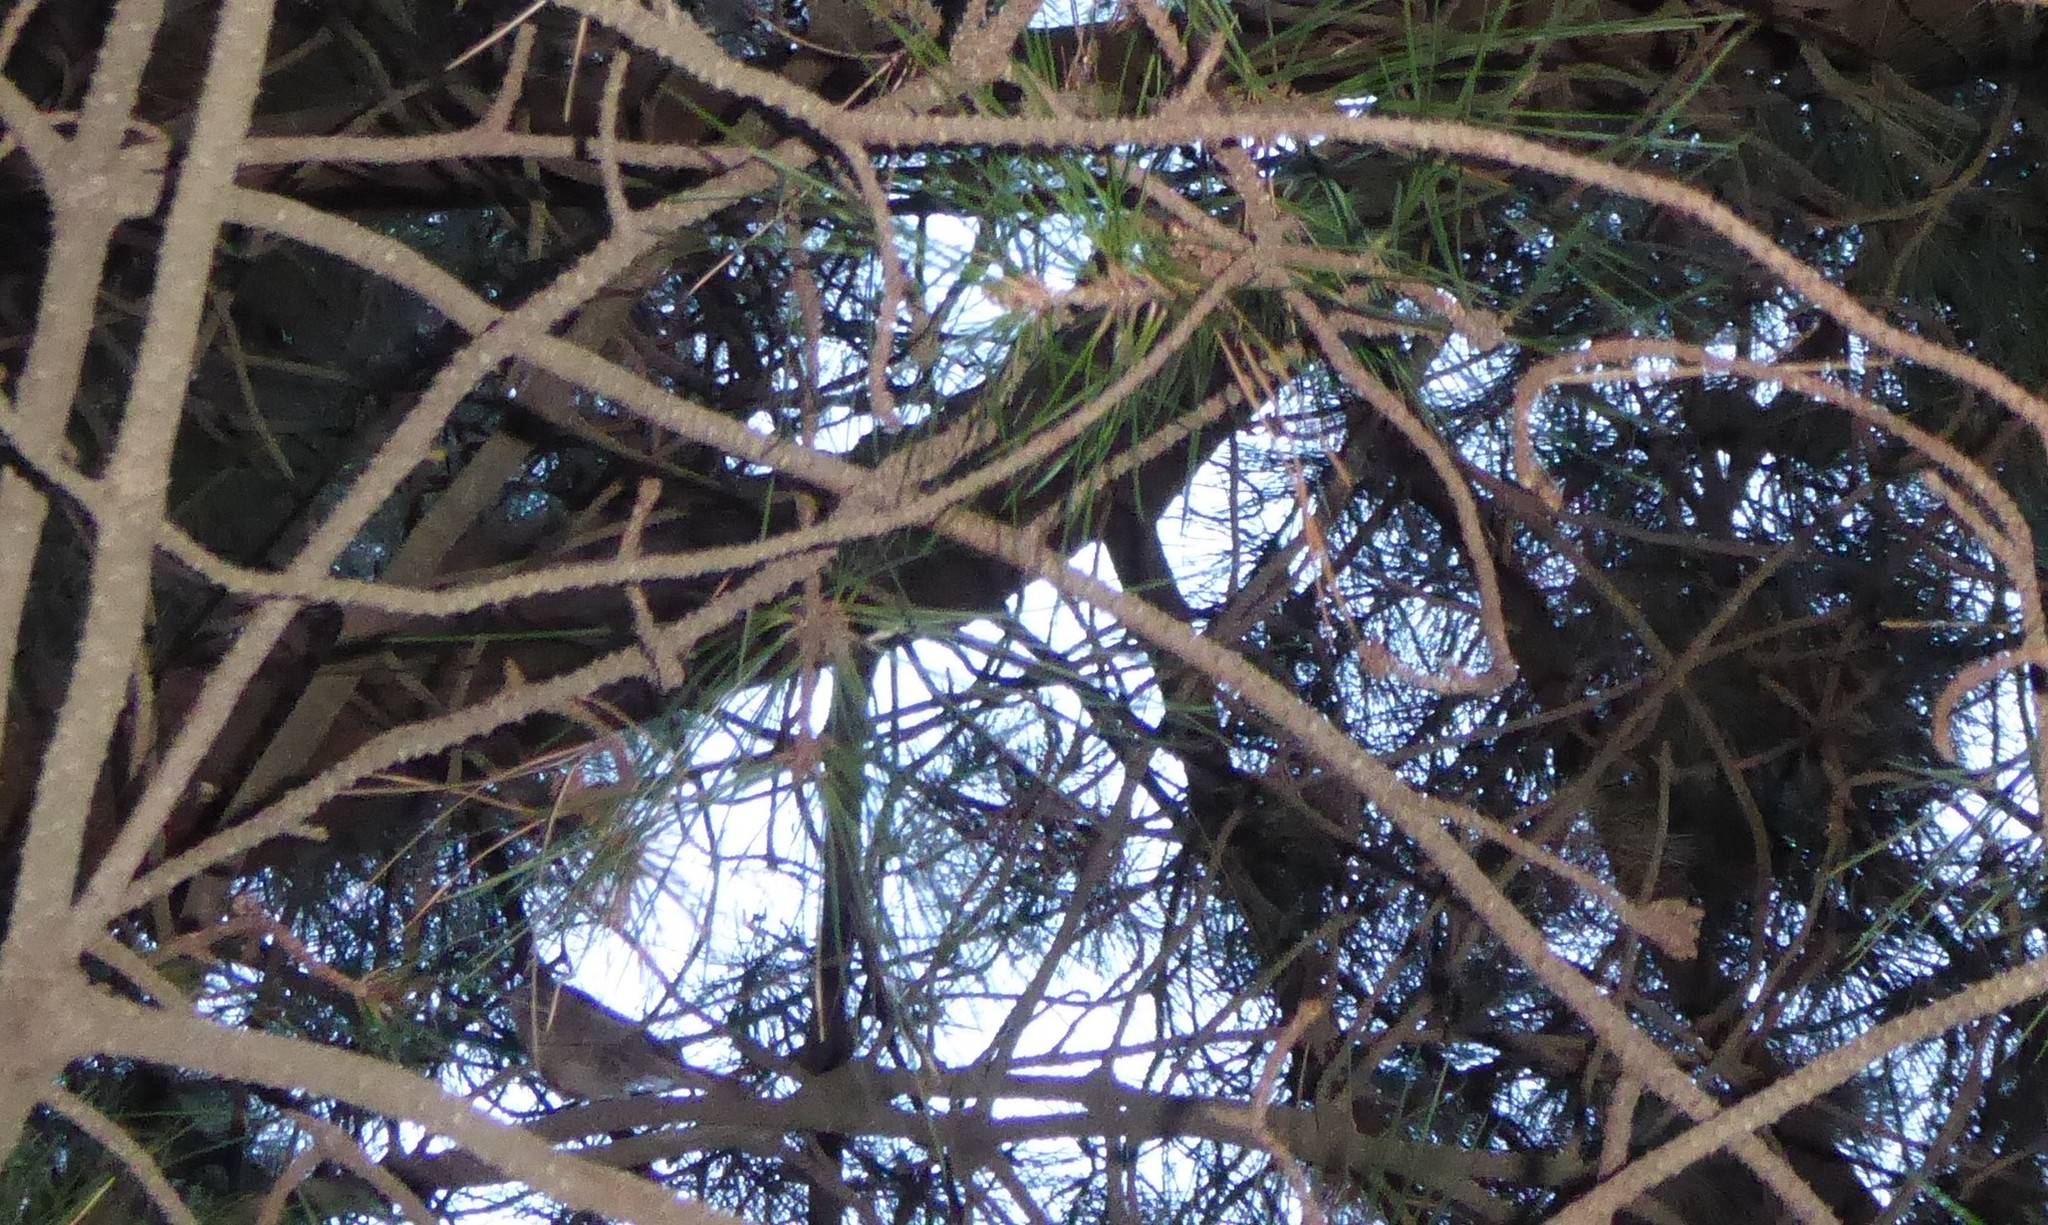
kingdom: Animalia
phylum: Chordata
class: Aves
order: Passeriformes
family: Acanthizidae
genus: Finschia
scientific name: Finschia novaeseelandiae
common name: Pipipi
